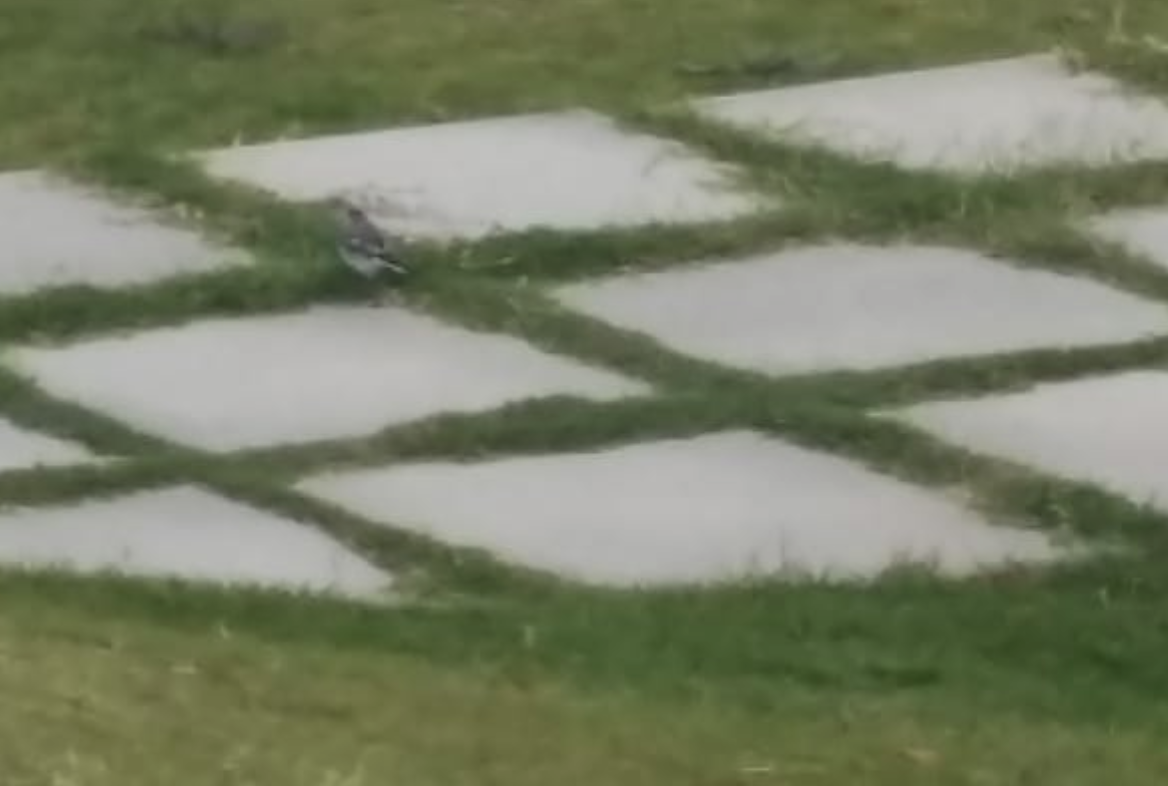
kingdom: Animalia
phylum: Chordata
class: Aves
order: Passeriformes
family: Motacillidae
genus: Motacilla
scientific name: Motacilla alba
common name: White wagtail
